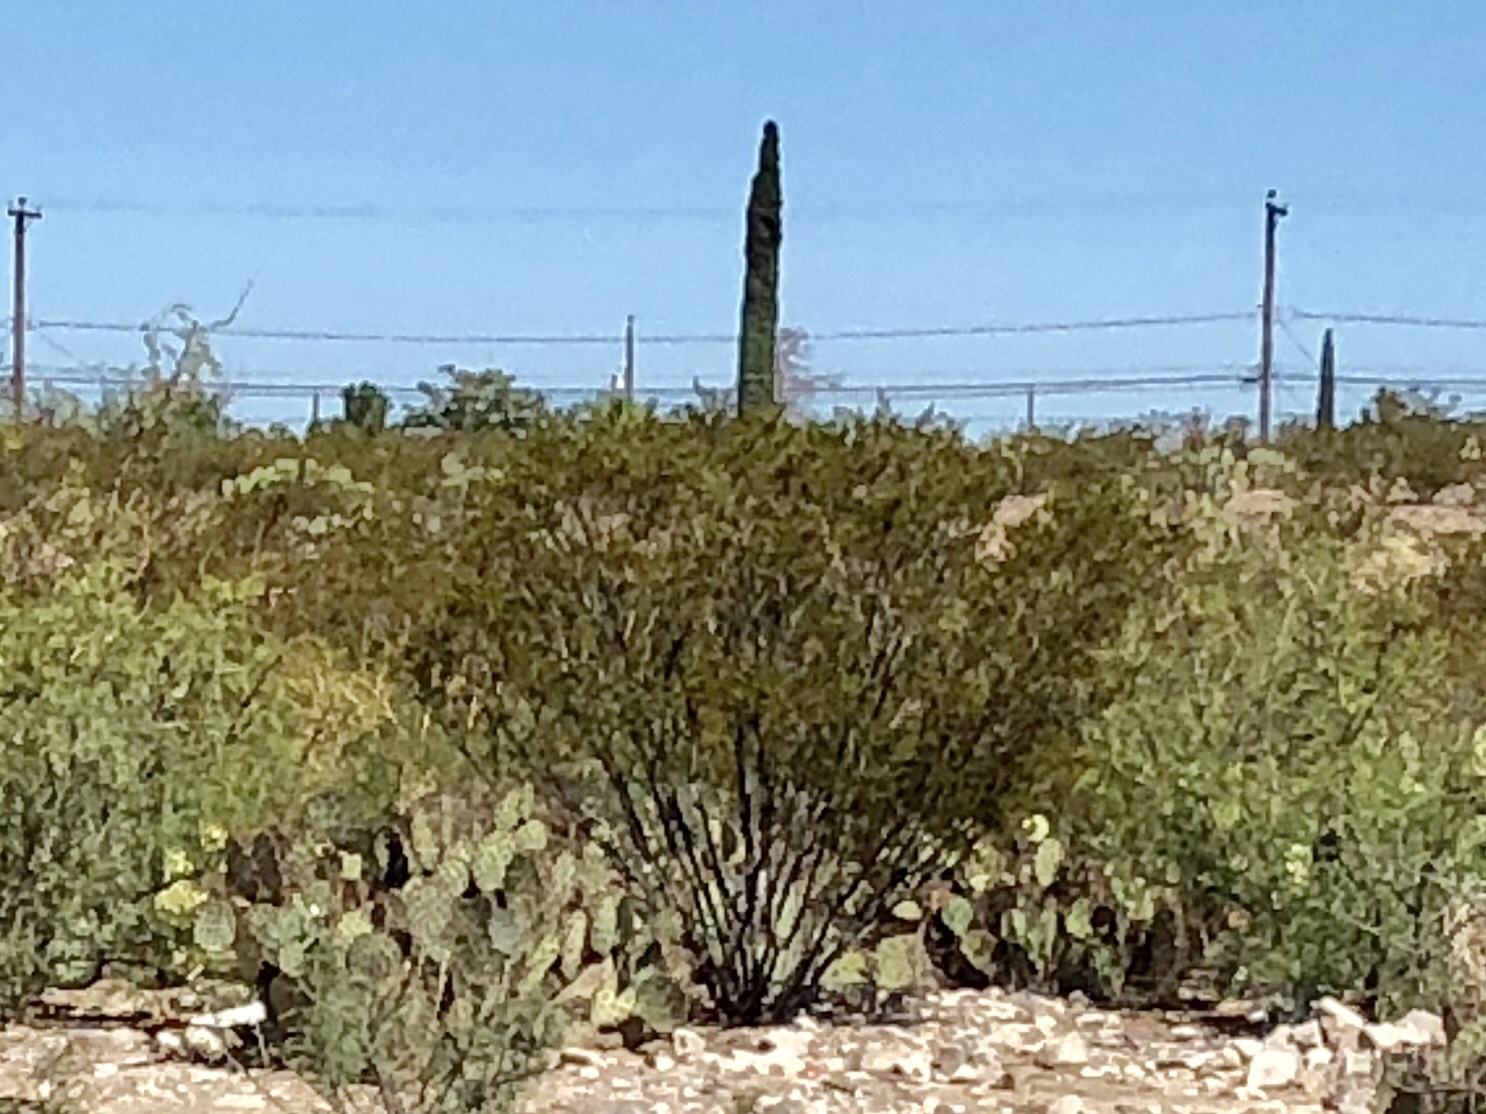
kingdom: Plantae
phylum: Tracheophyta
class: Magnoliopsida
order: Zygophyllales
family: Zygophyllaceae
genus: Larrea
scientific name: Larrea tridentata
